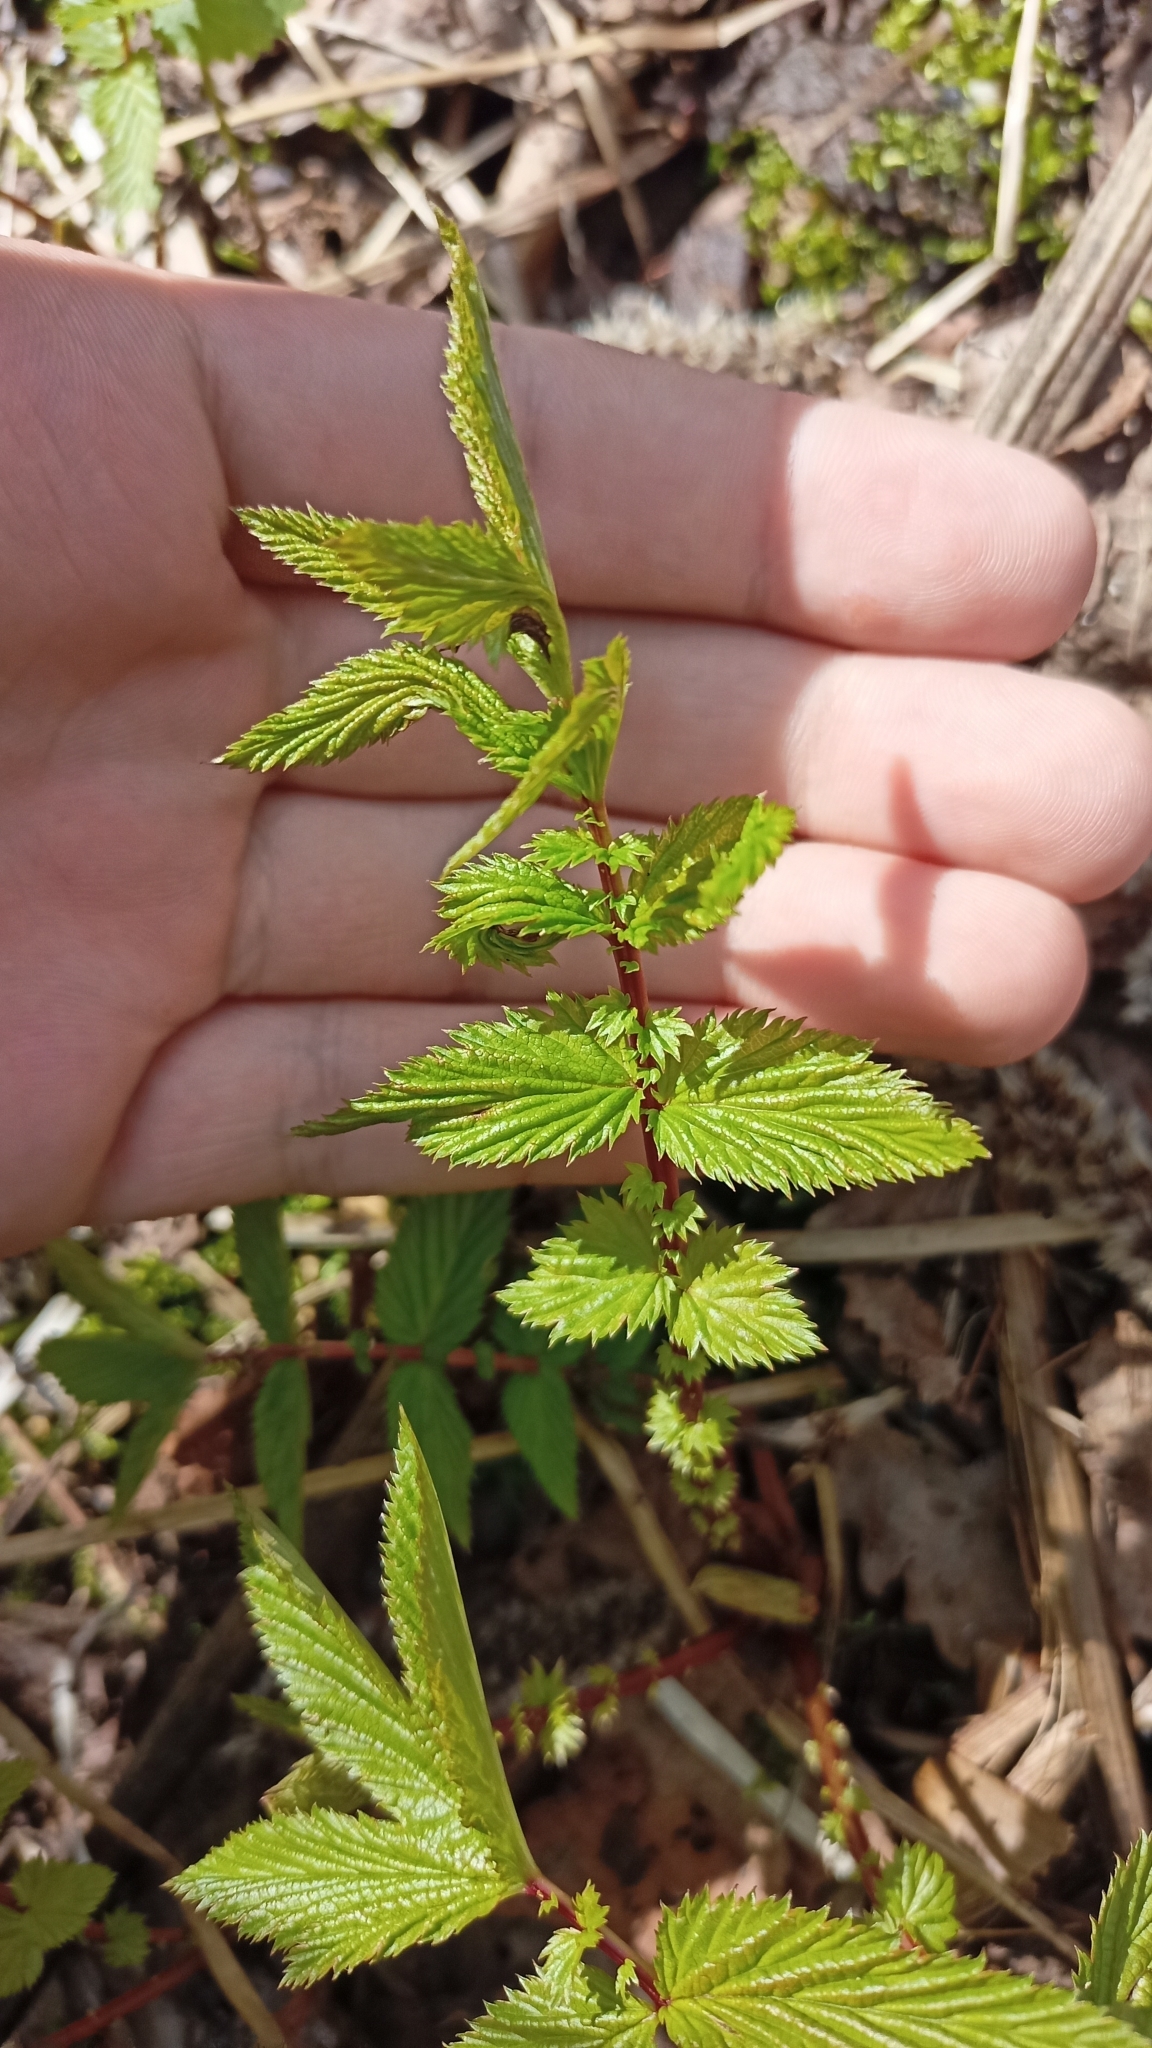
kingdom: Plantae
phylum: Tracheophyta
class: Magnoliopsida
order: Rosales
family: Rosaceae
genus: Filipendula
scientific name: Filipendula ulmaria
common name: Meadowsweet
